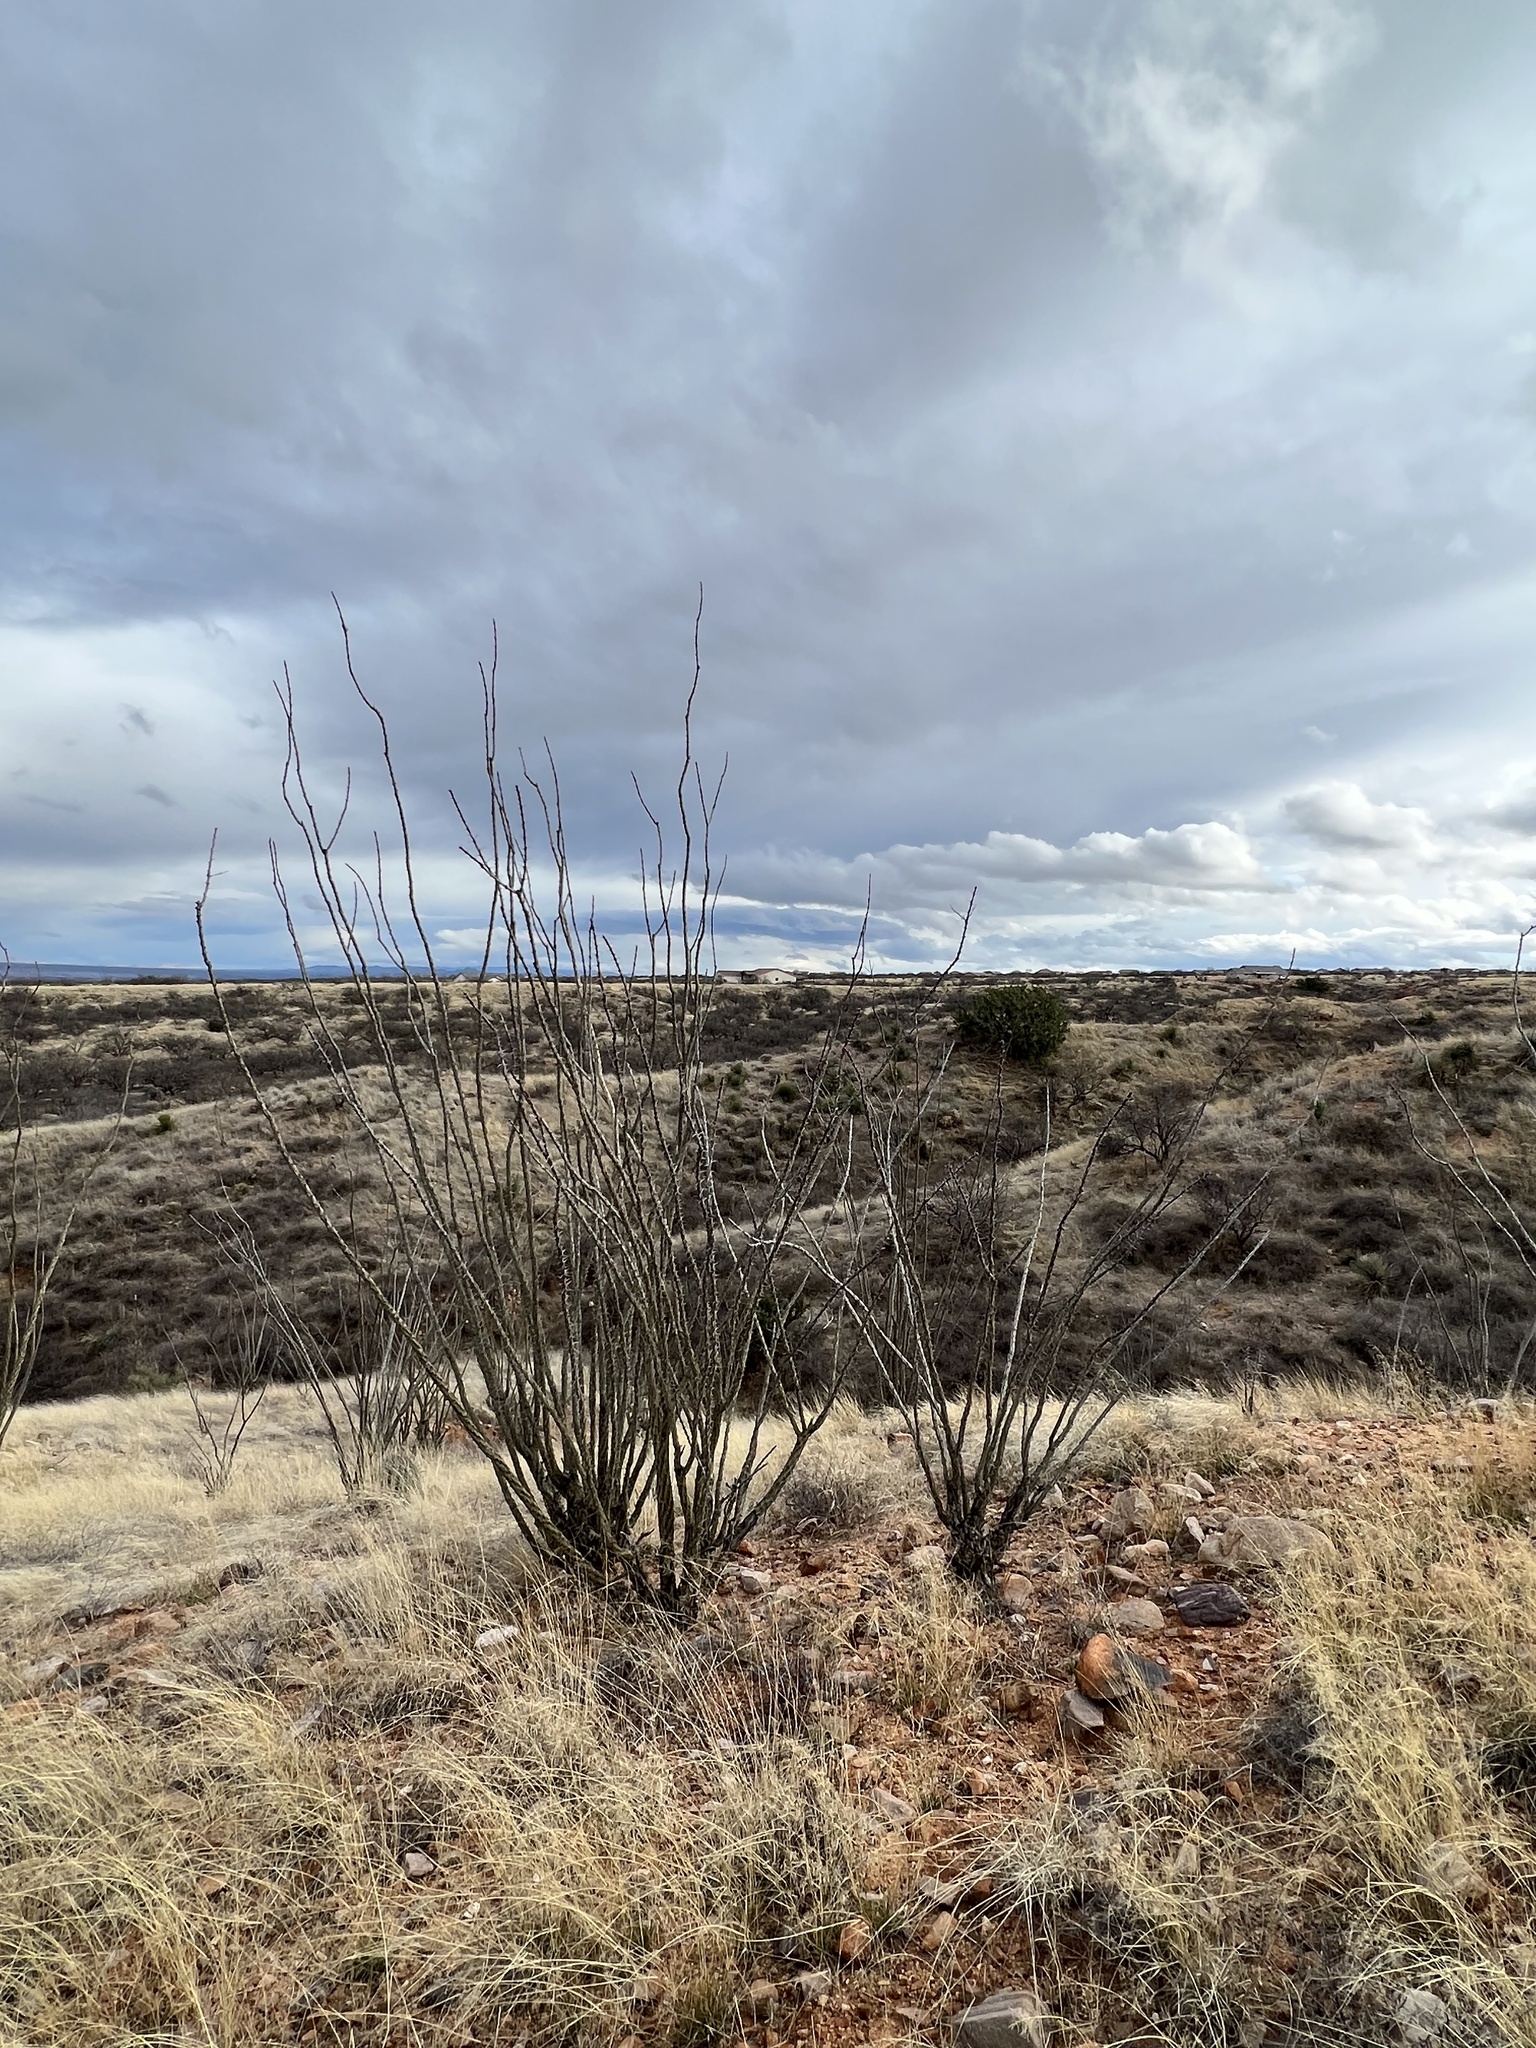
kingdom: Plantae
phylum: Tracheophyta
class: Magnoliopsida
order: Ericales
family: Fouquieriaceae
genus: Fouquieria
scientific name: Fouquieria splendens
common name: Vine-cactus
